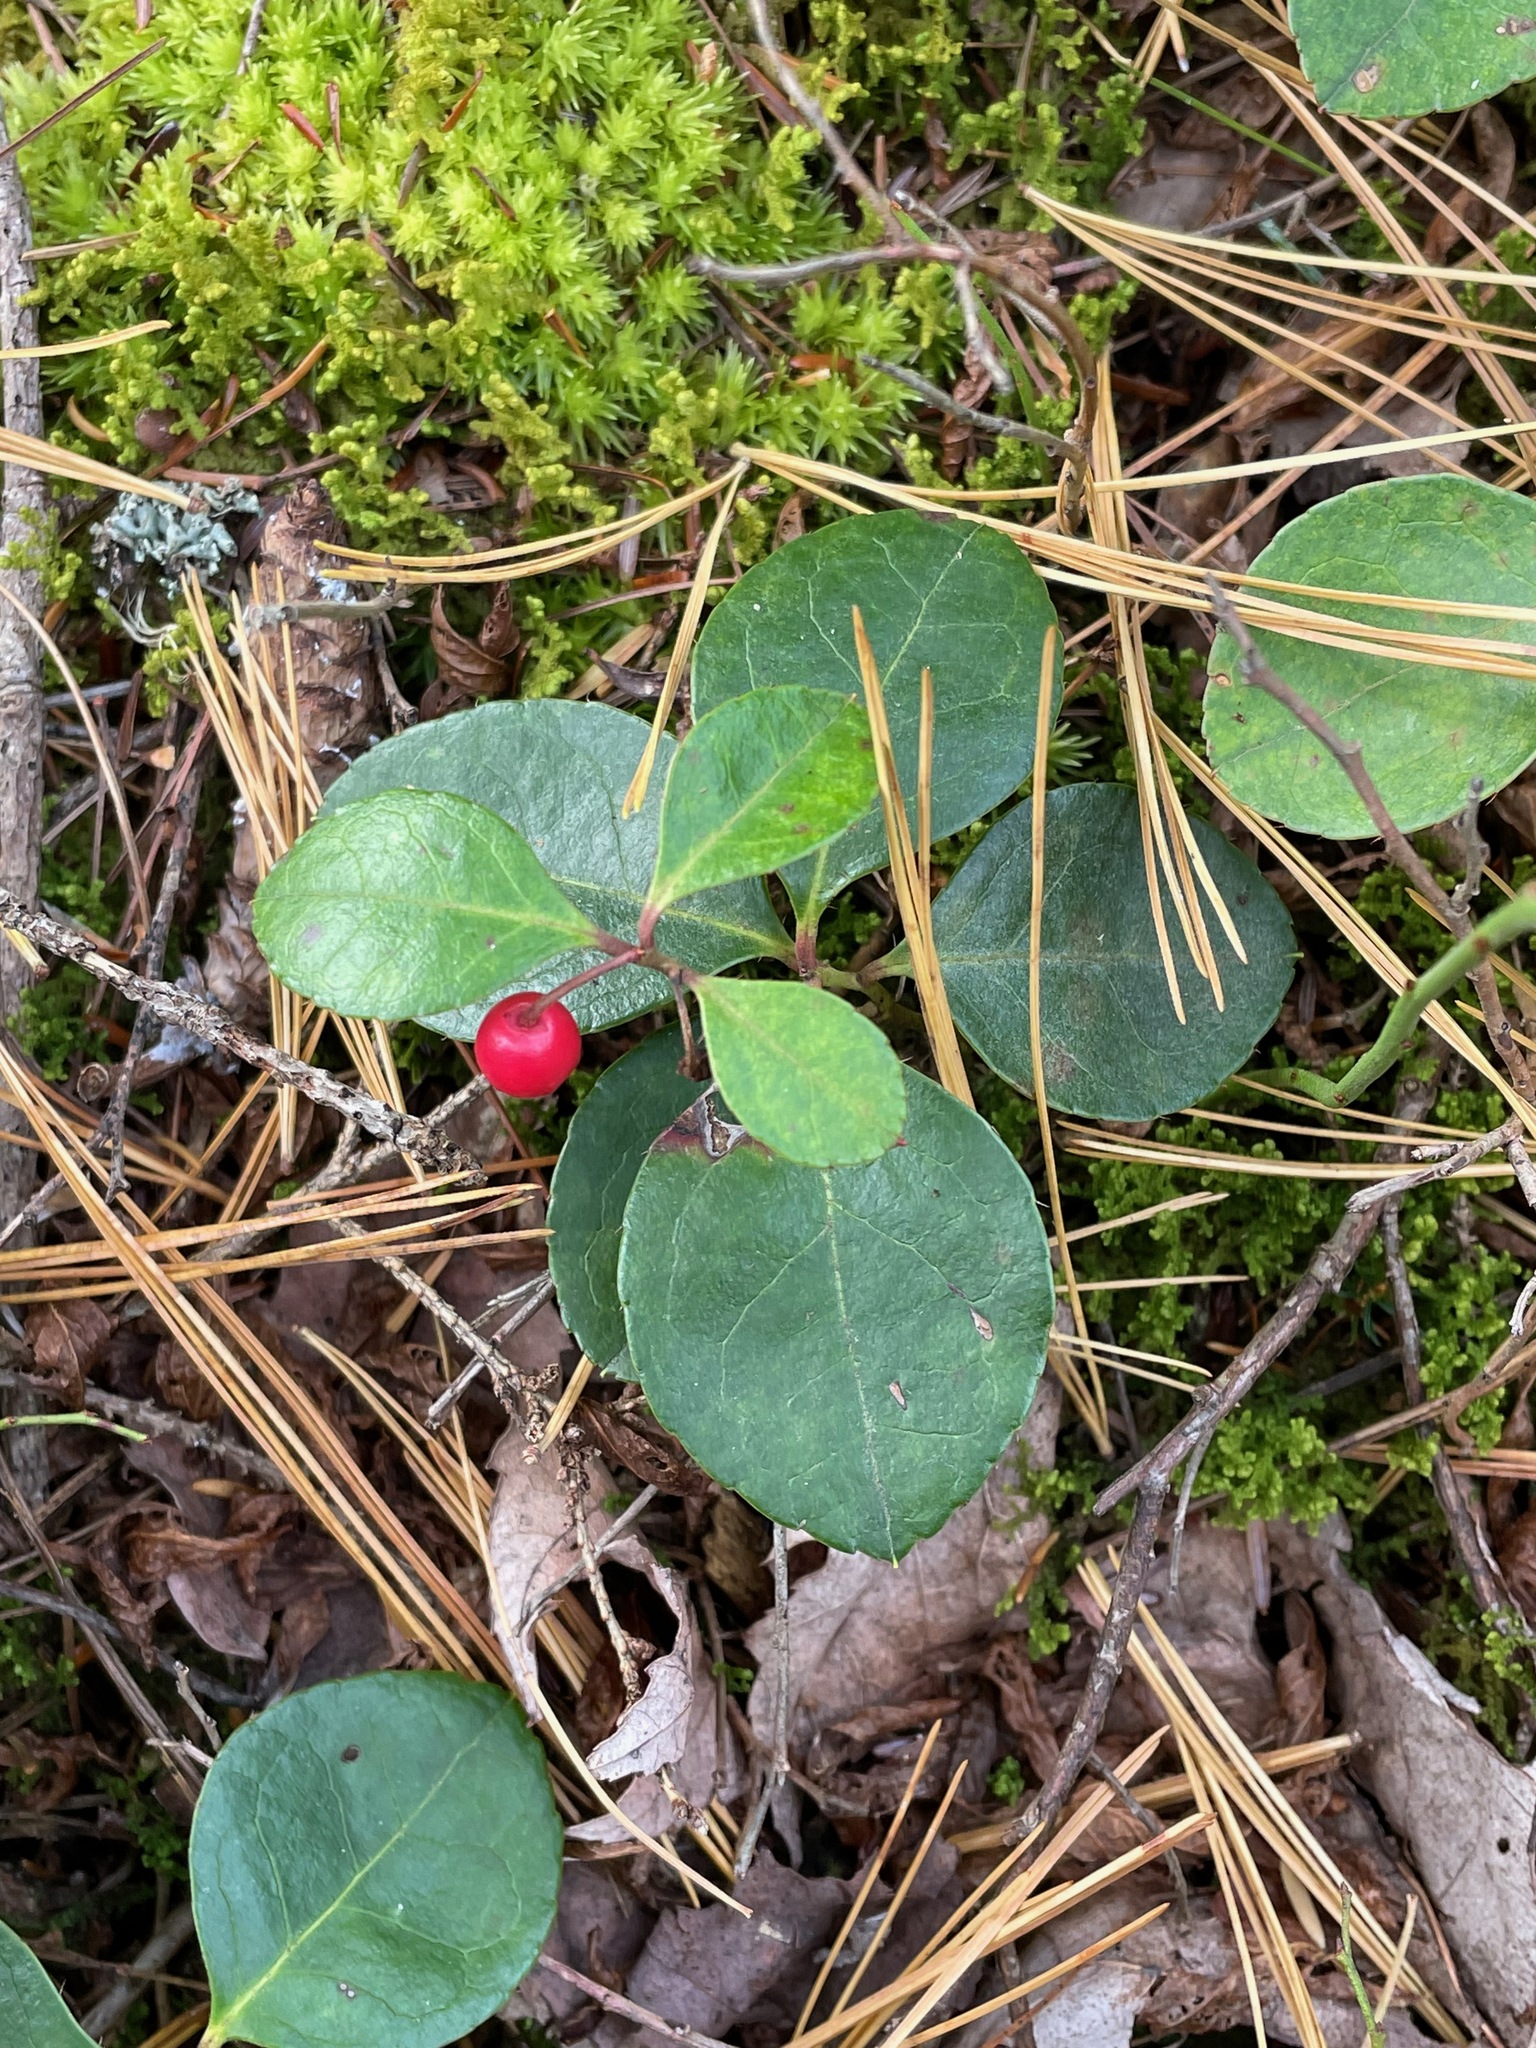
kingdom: Plantae
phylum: Tracheophyta
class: Magnoliopsida
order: Ericales
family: Ericaceae
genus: Gaultheria
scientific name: Gaultheria procumbens
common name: Checkerberry
